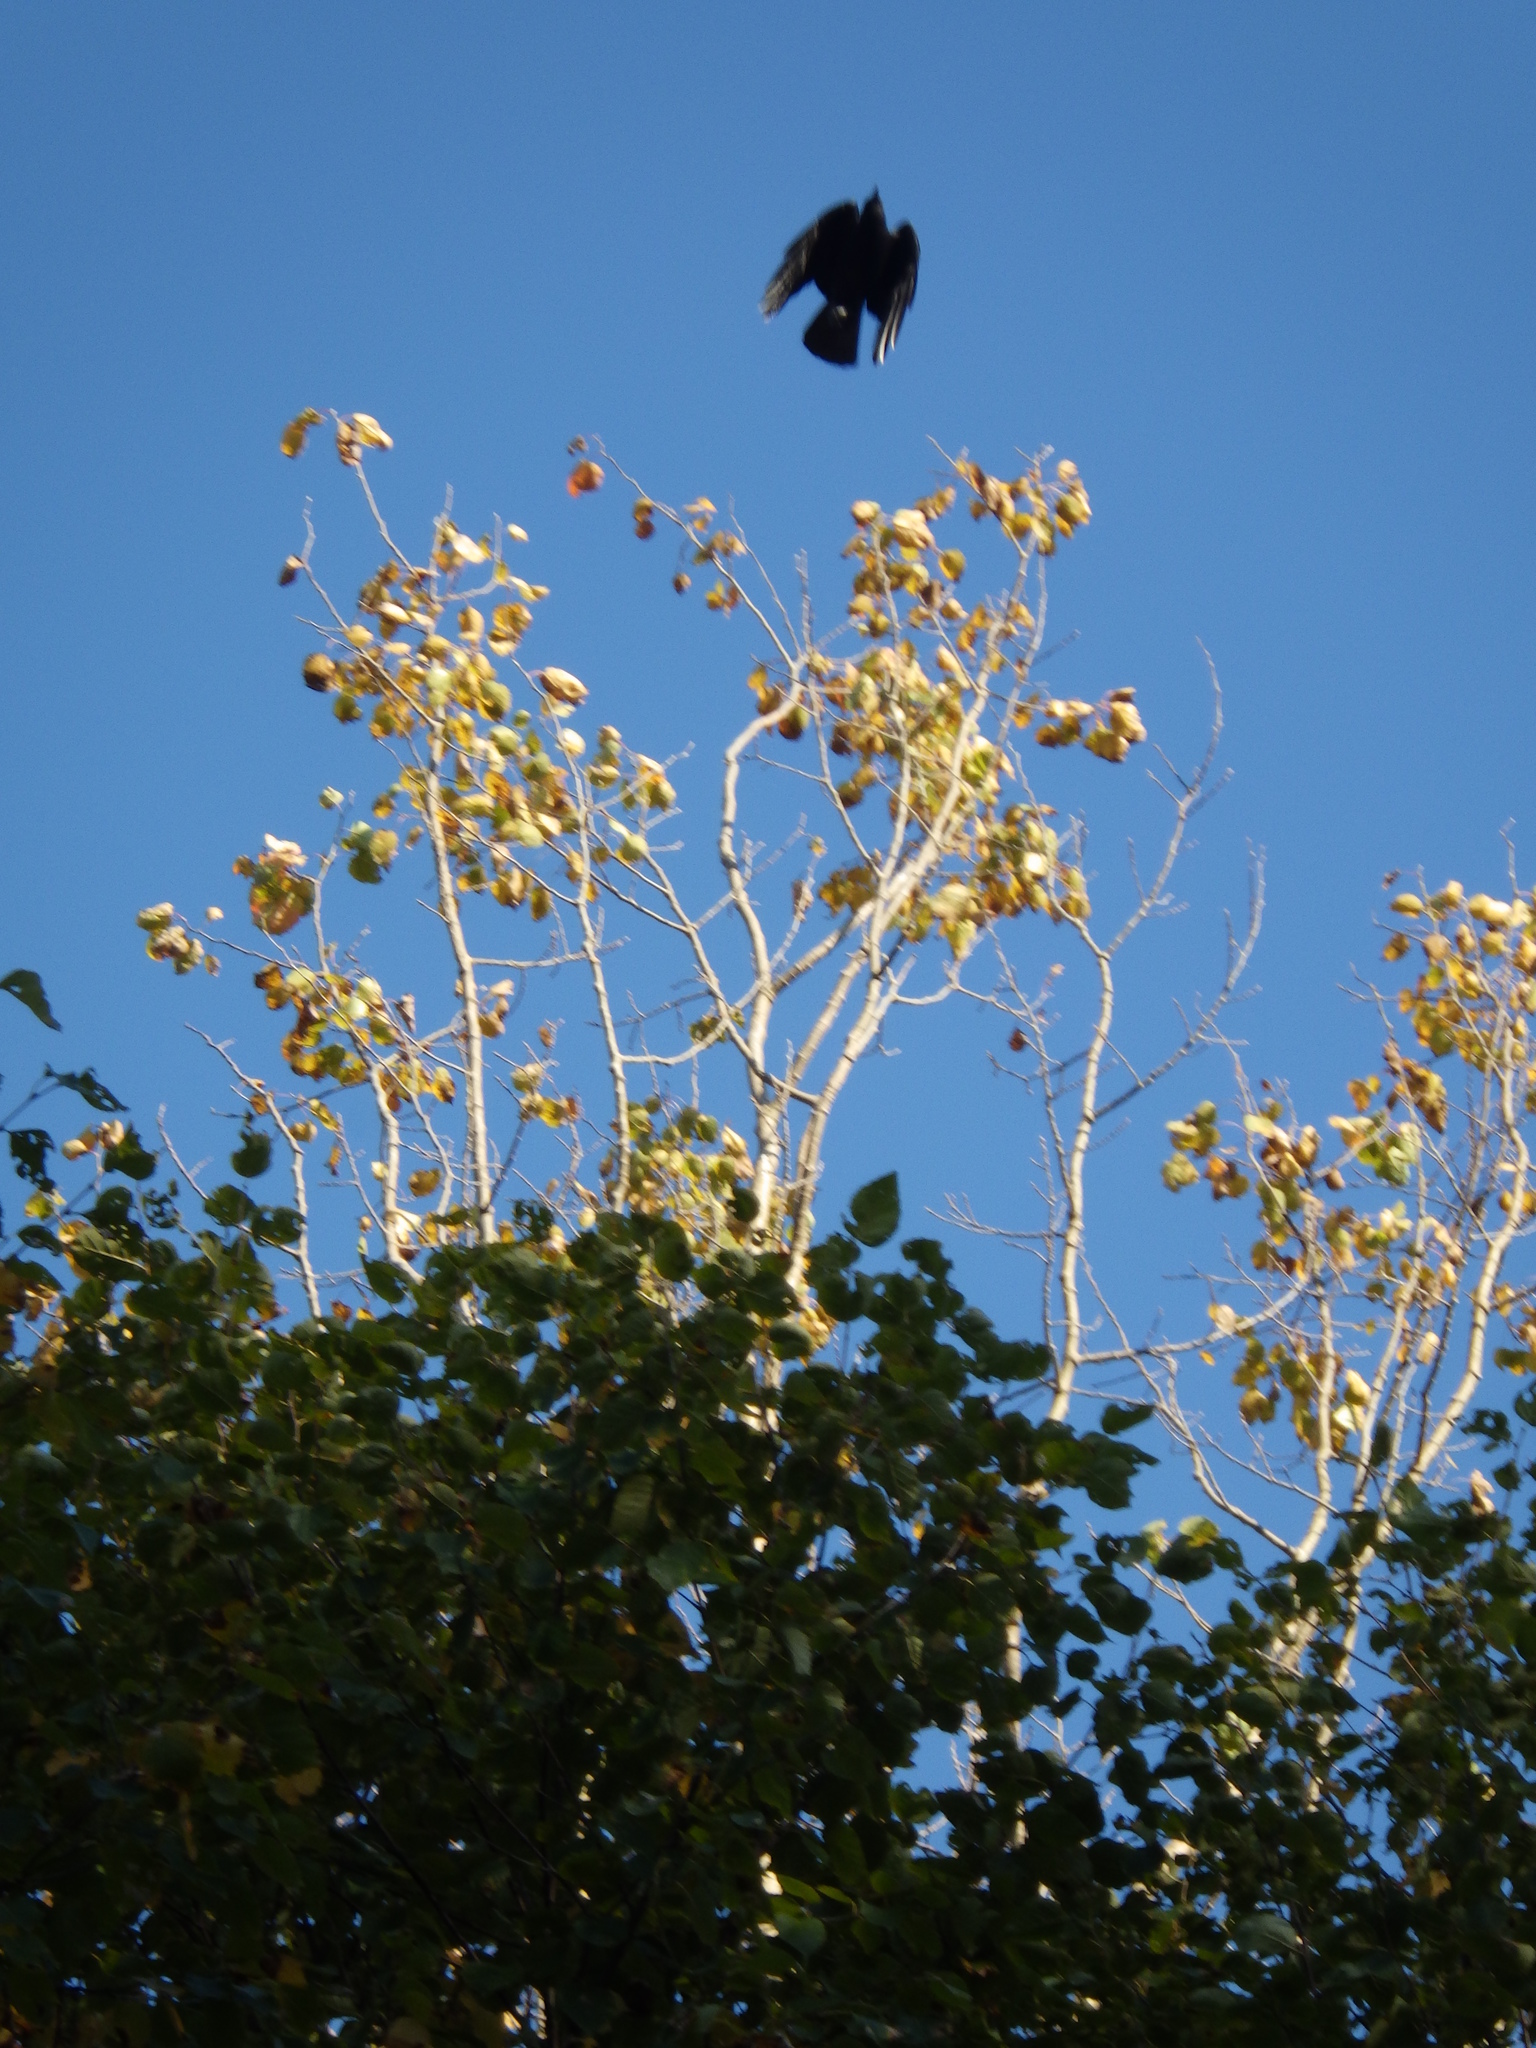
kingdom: Animalia
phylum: Chordata
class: Aves
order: Passeriformes
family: Corvidae
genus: Corvus
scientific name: Corvus brachyrhynchos
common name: American crow
